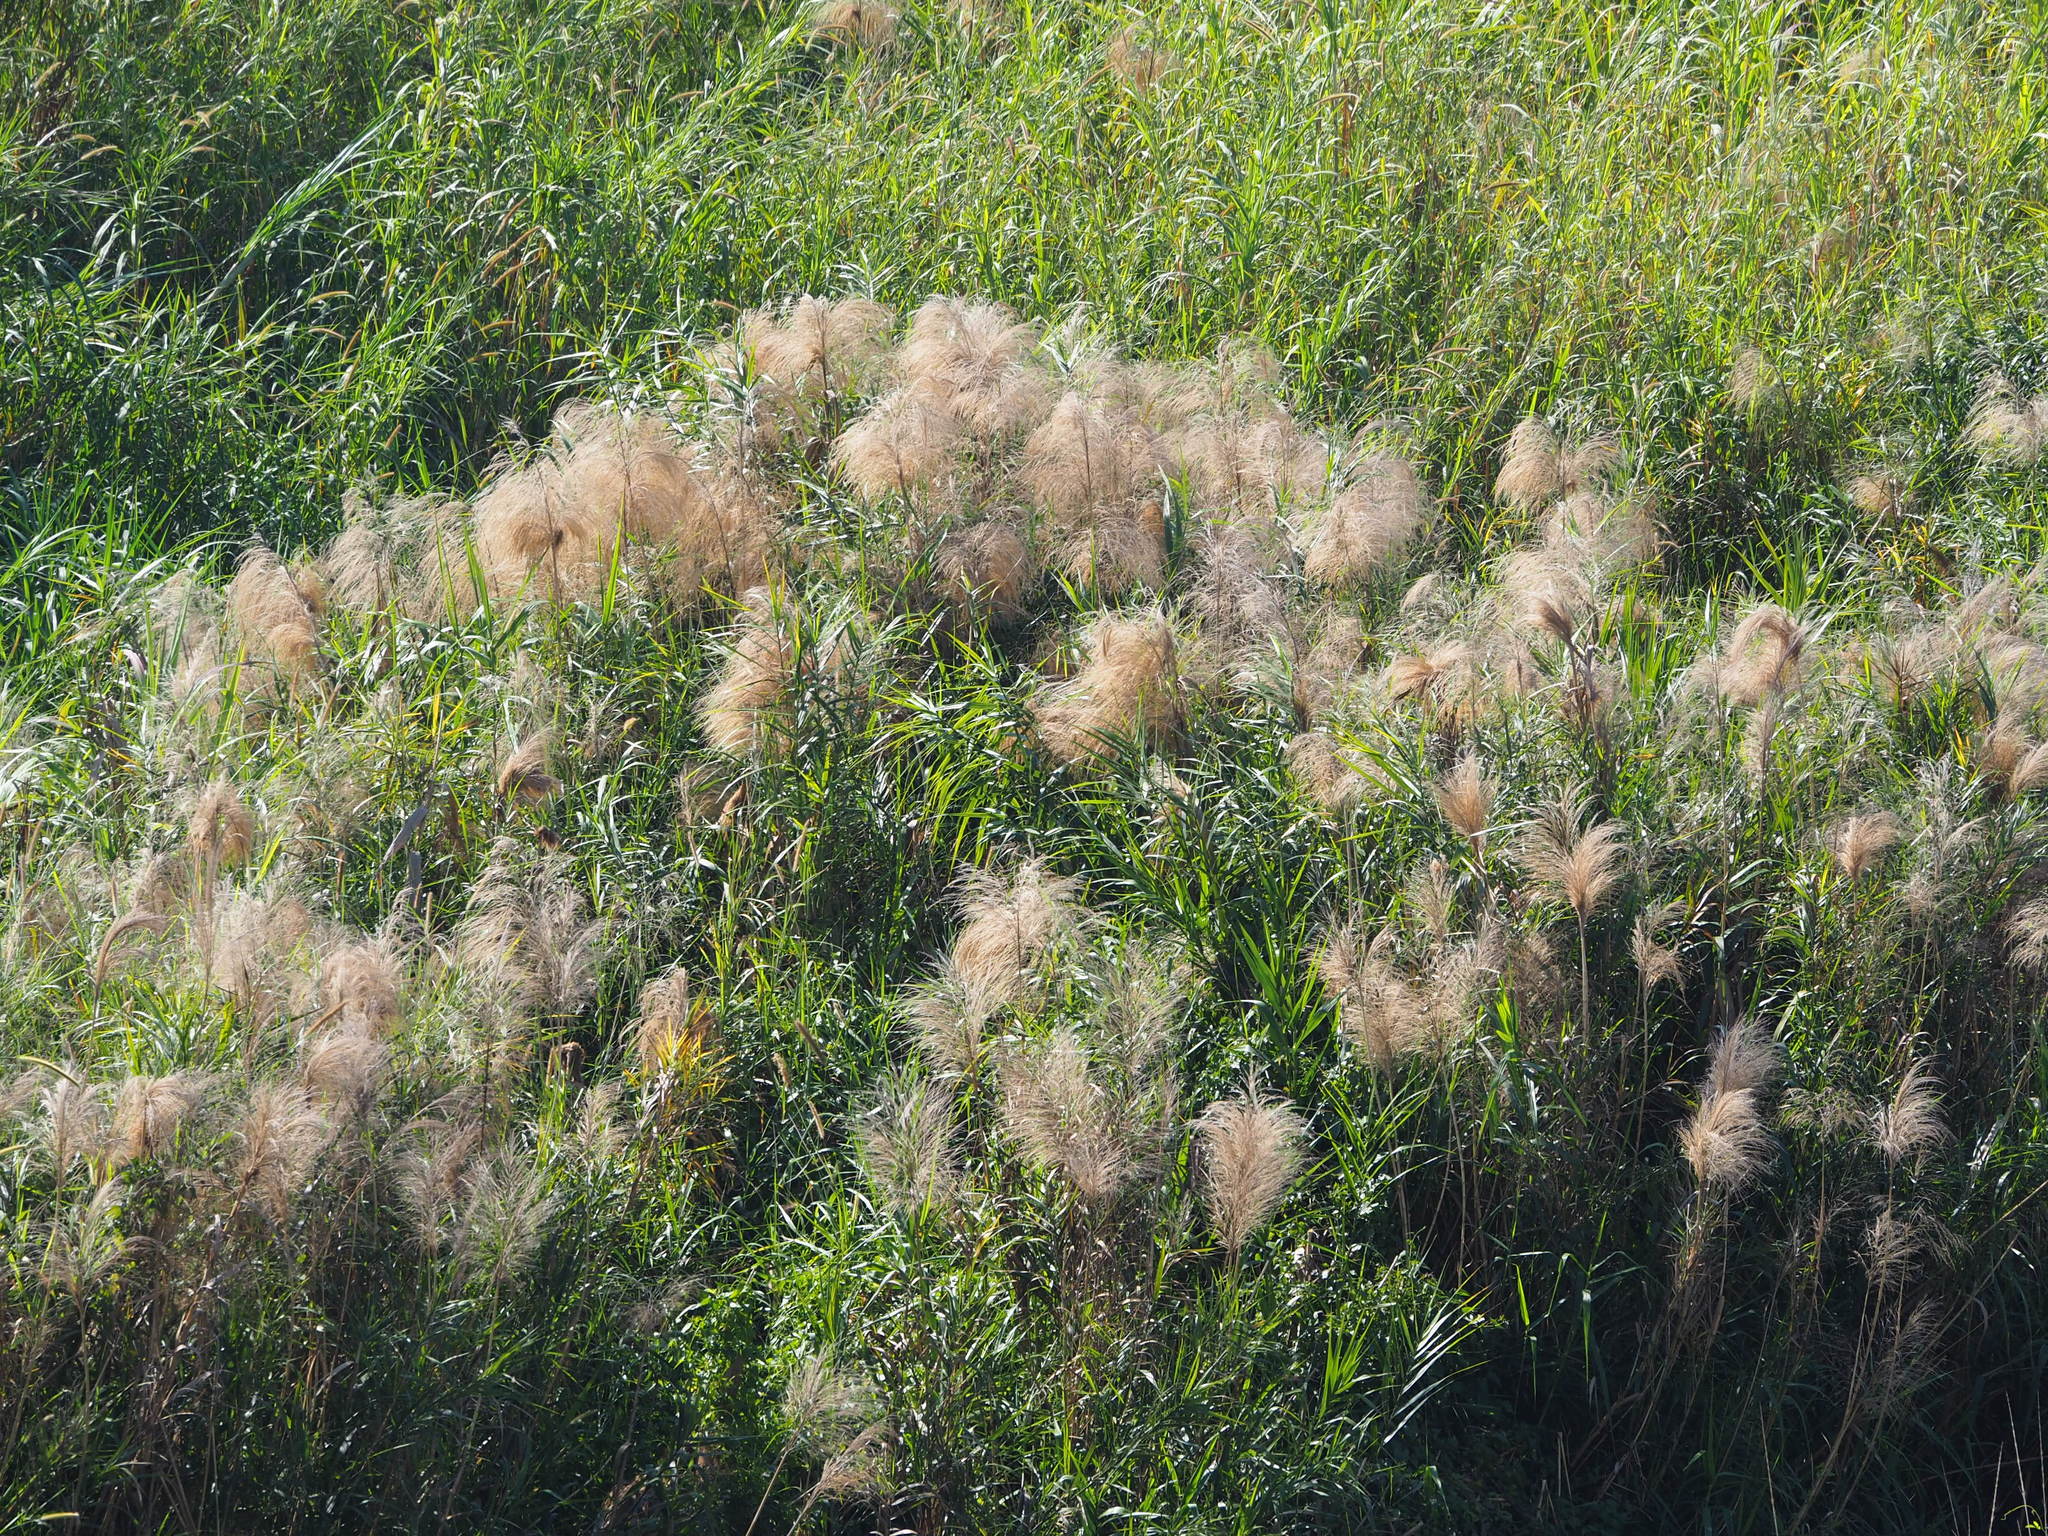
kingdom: Plantae
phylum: Tracheophyta
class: Liliopsida
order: Poales
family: Poaceae
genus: Phragmites
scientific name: Phragmites karka
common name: Tropical reed
